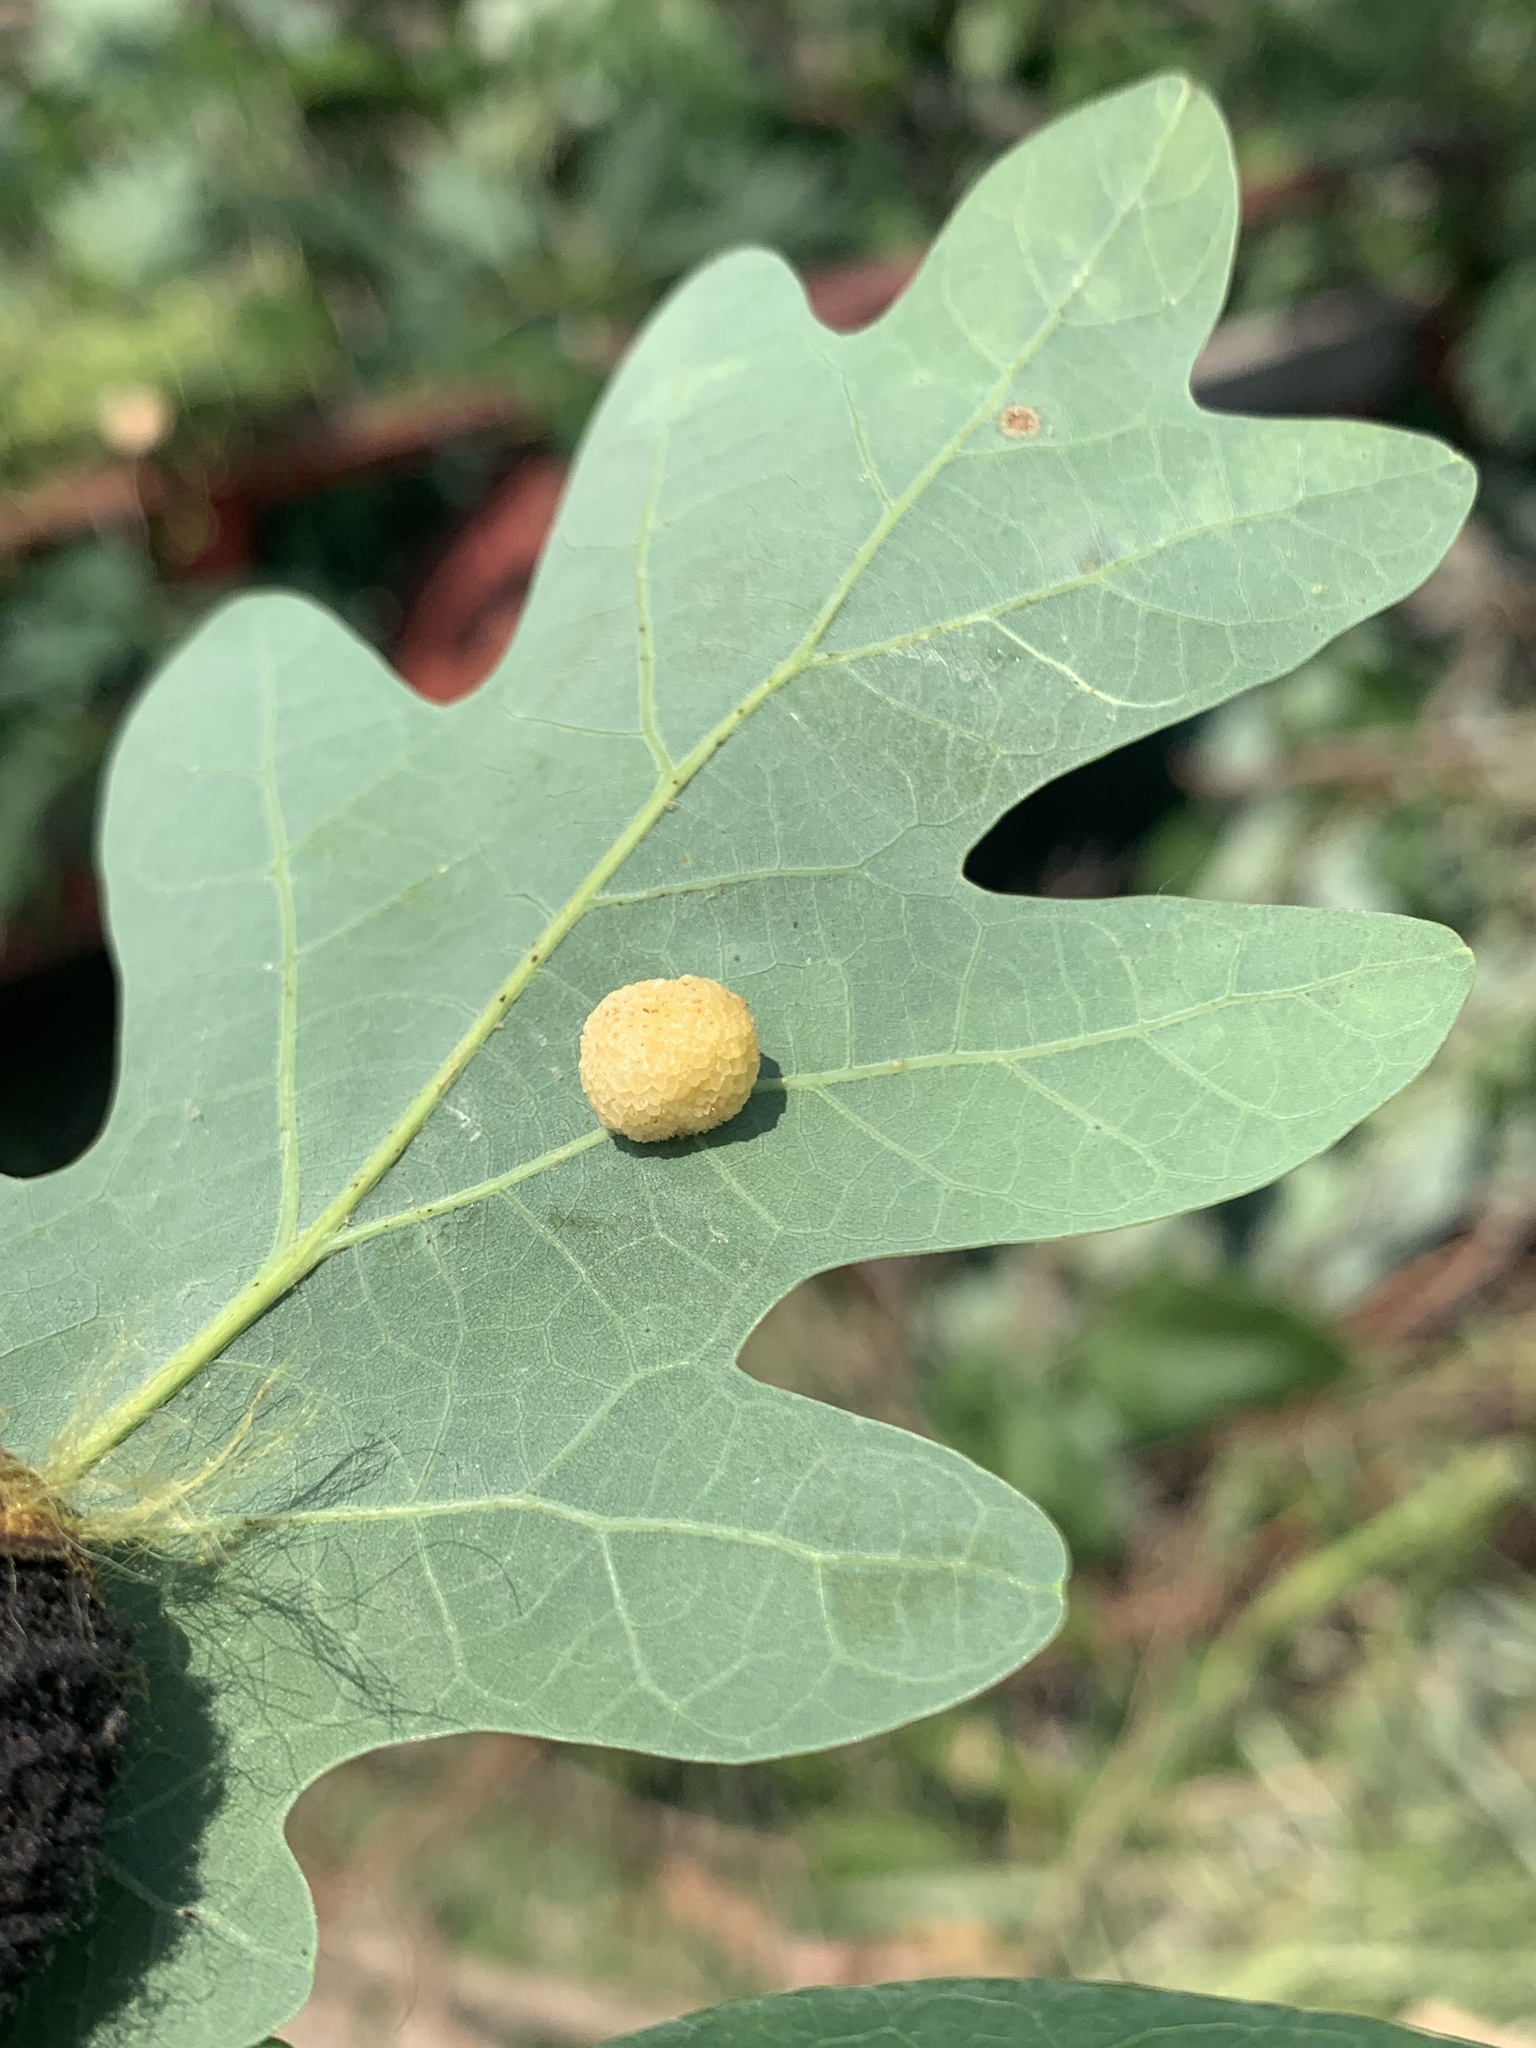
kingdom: Animalia
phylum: Arthropoda
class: Insecta
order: Hymenoptera
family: Cynipidae
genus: Acraspis
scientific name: Acraspis
